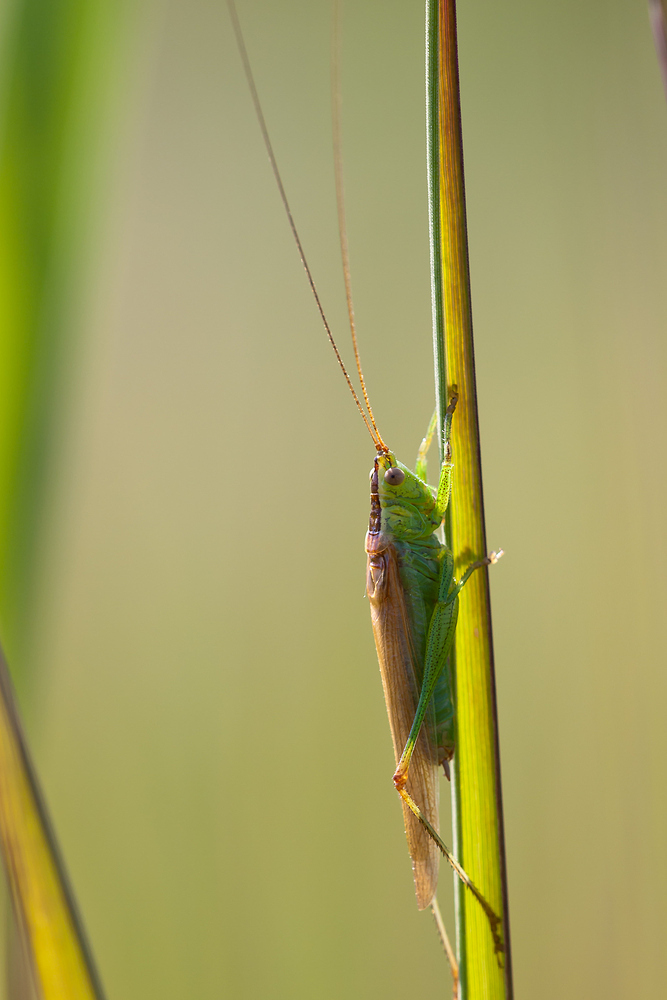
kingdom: Animalia
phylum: Arthropoda
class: Insecta
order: Orthoptera
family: Tettigoniidae
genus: Conocephalus
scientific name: Conocephalus fuscus
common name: Long-winged conehead
